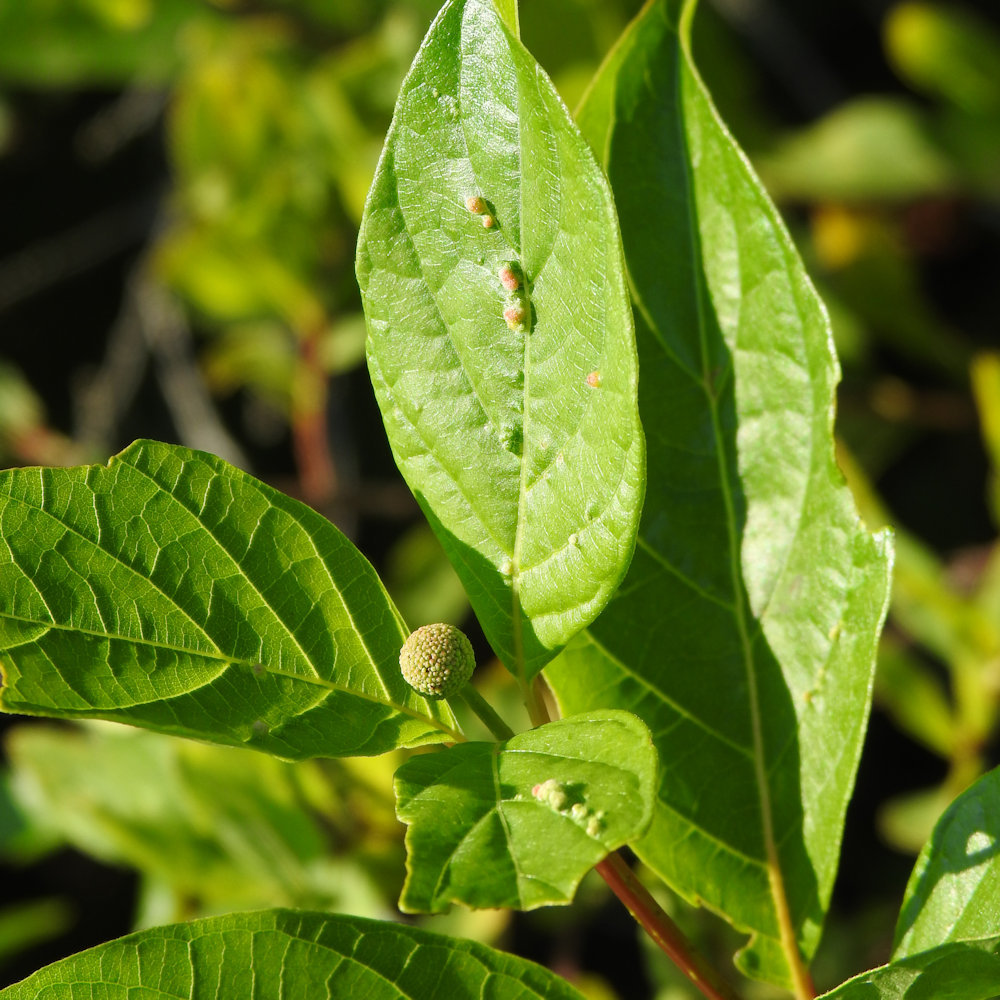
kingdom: Animalia
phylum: Arthropoda
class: Arachnida
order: Trombidiformes
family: Eriophyidae
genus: Aceria
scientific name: Aceria
